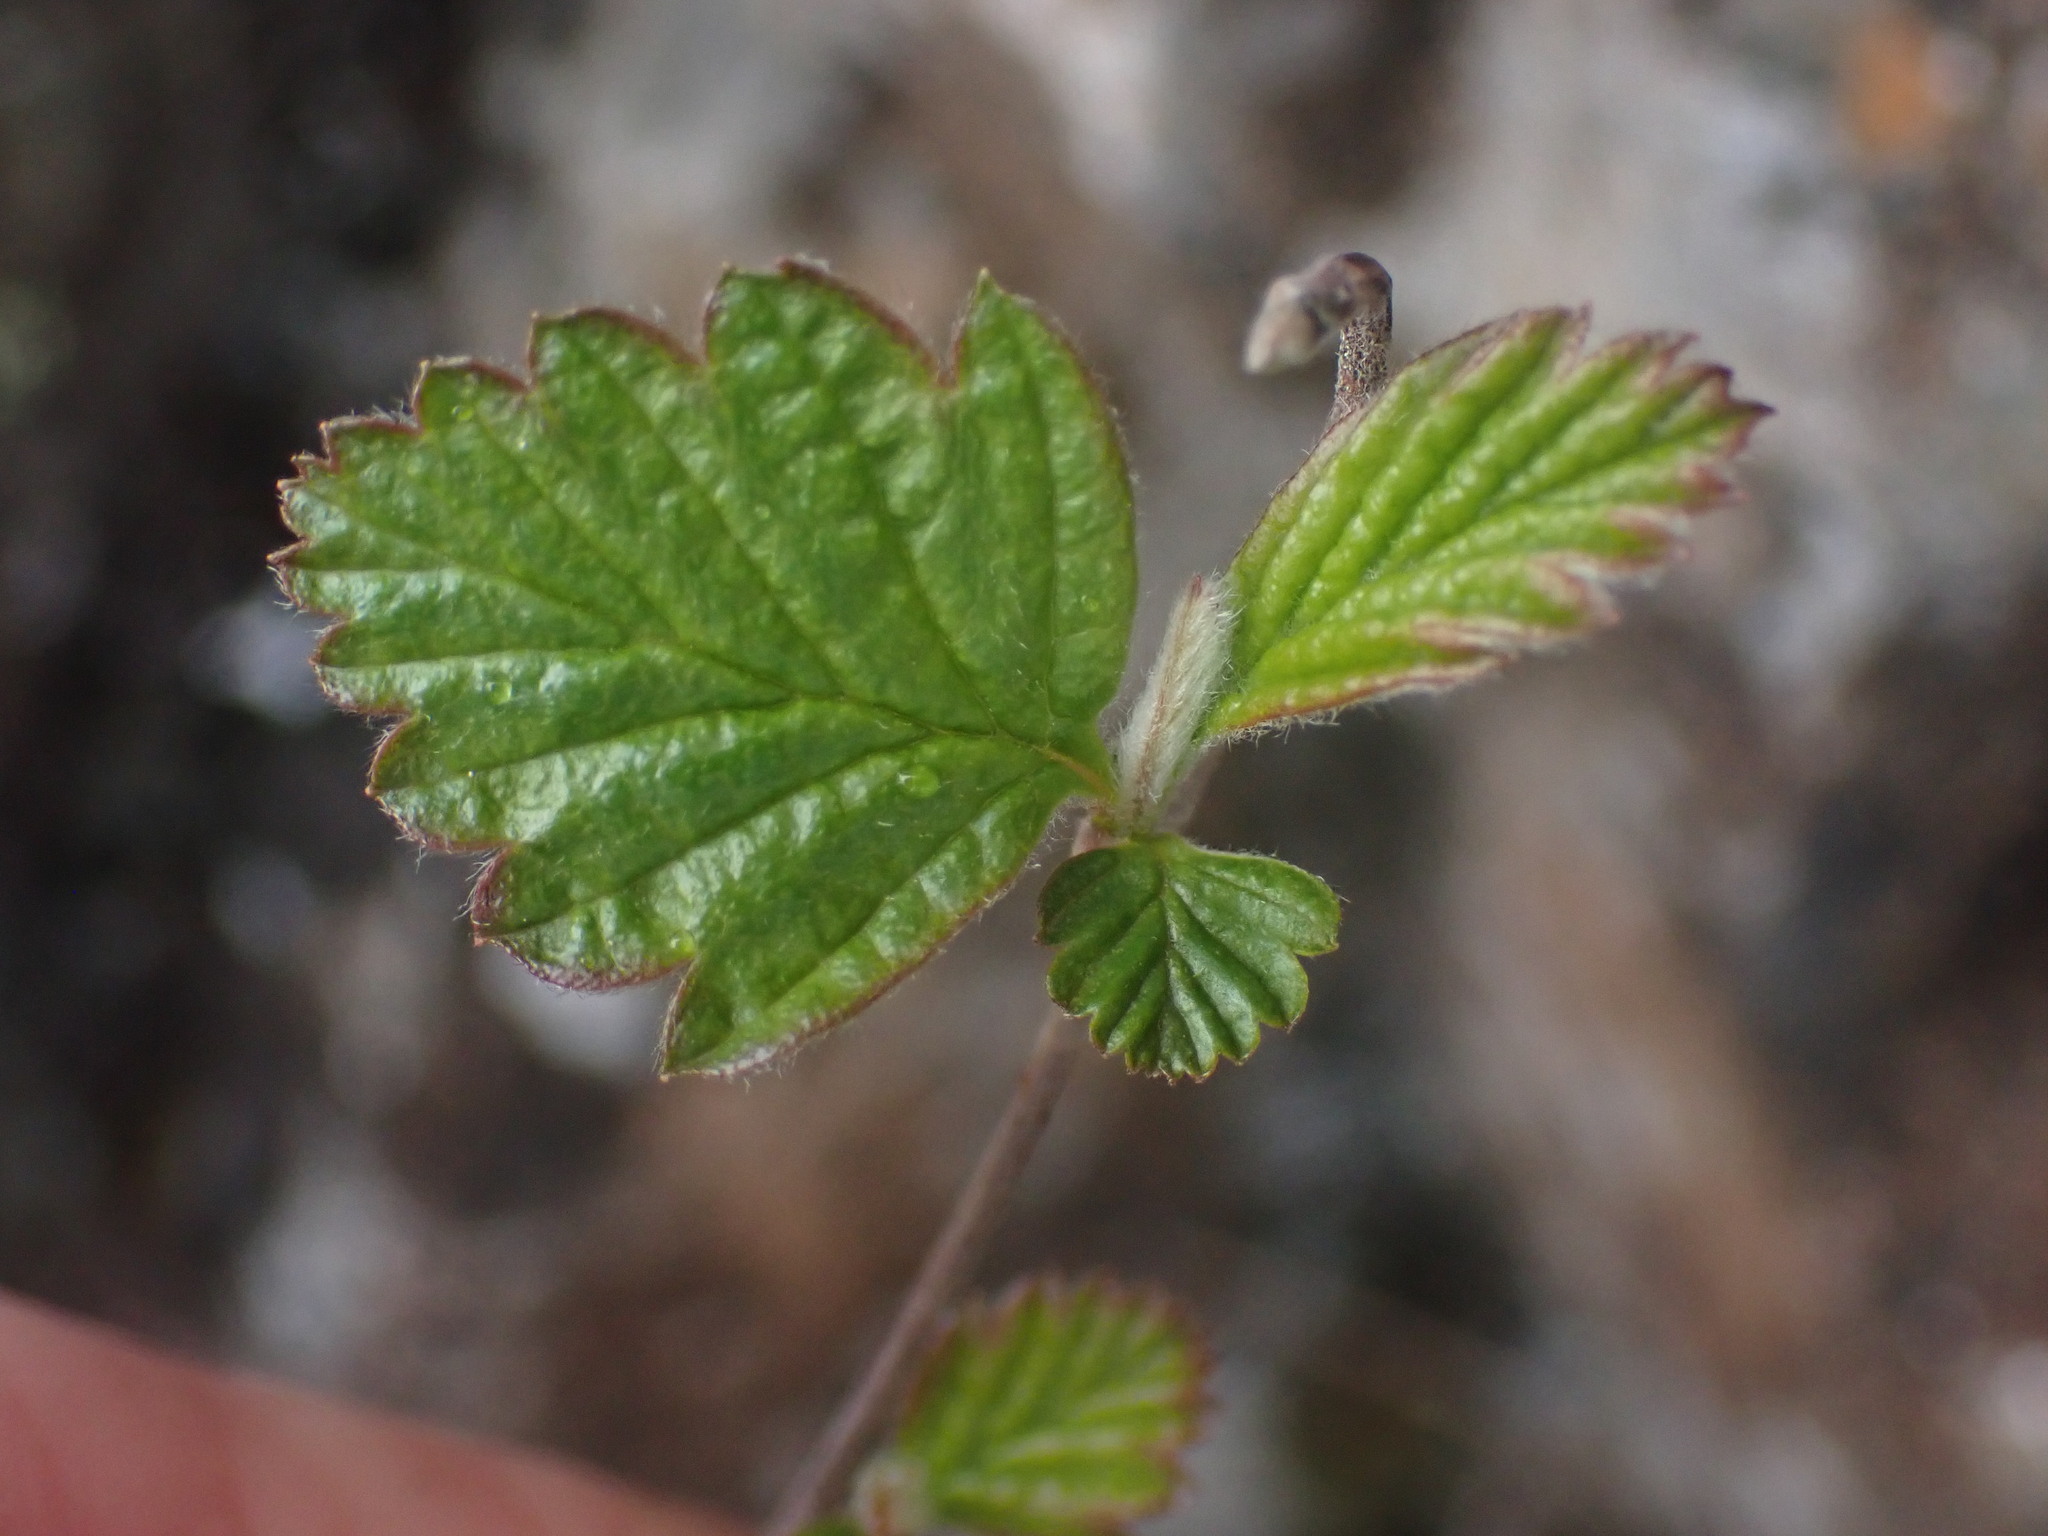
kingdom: Plantae
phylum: Tracheophyta
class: Magnoliopsida
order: Rosales
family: Rosaceae
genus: Holodiscus
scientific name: Holodiscus discolor
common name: Oceanspray
